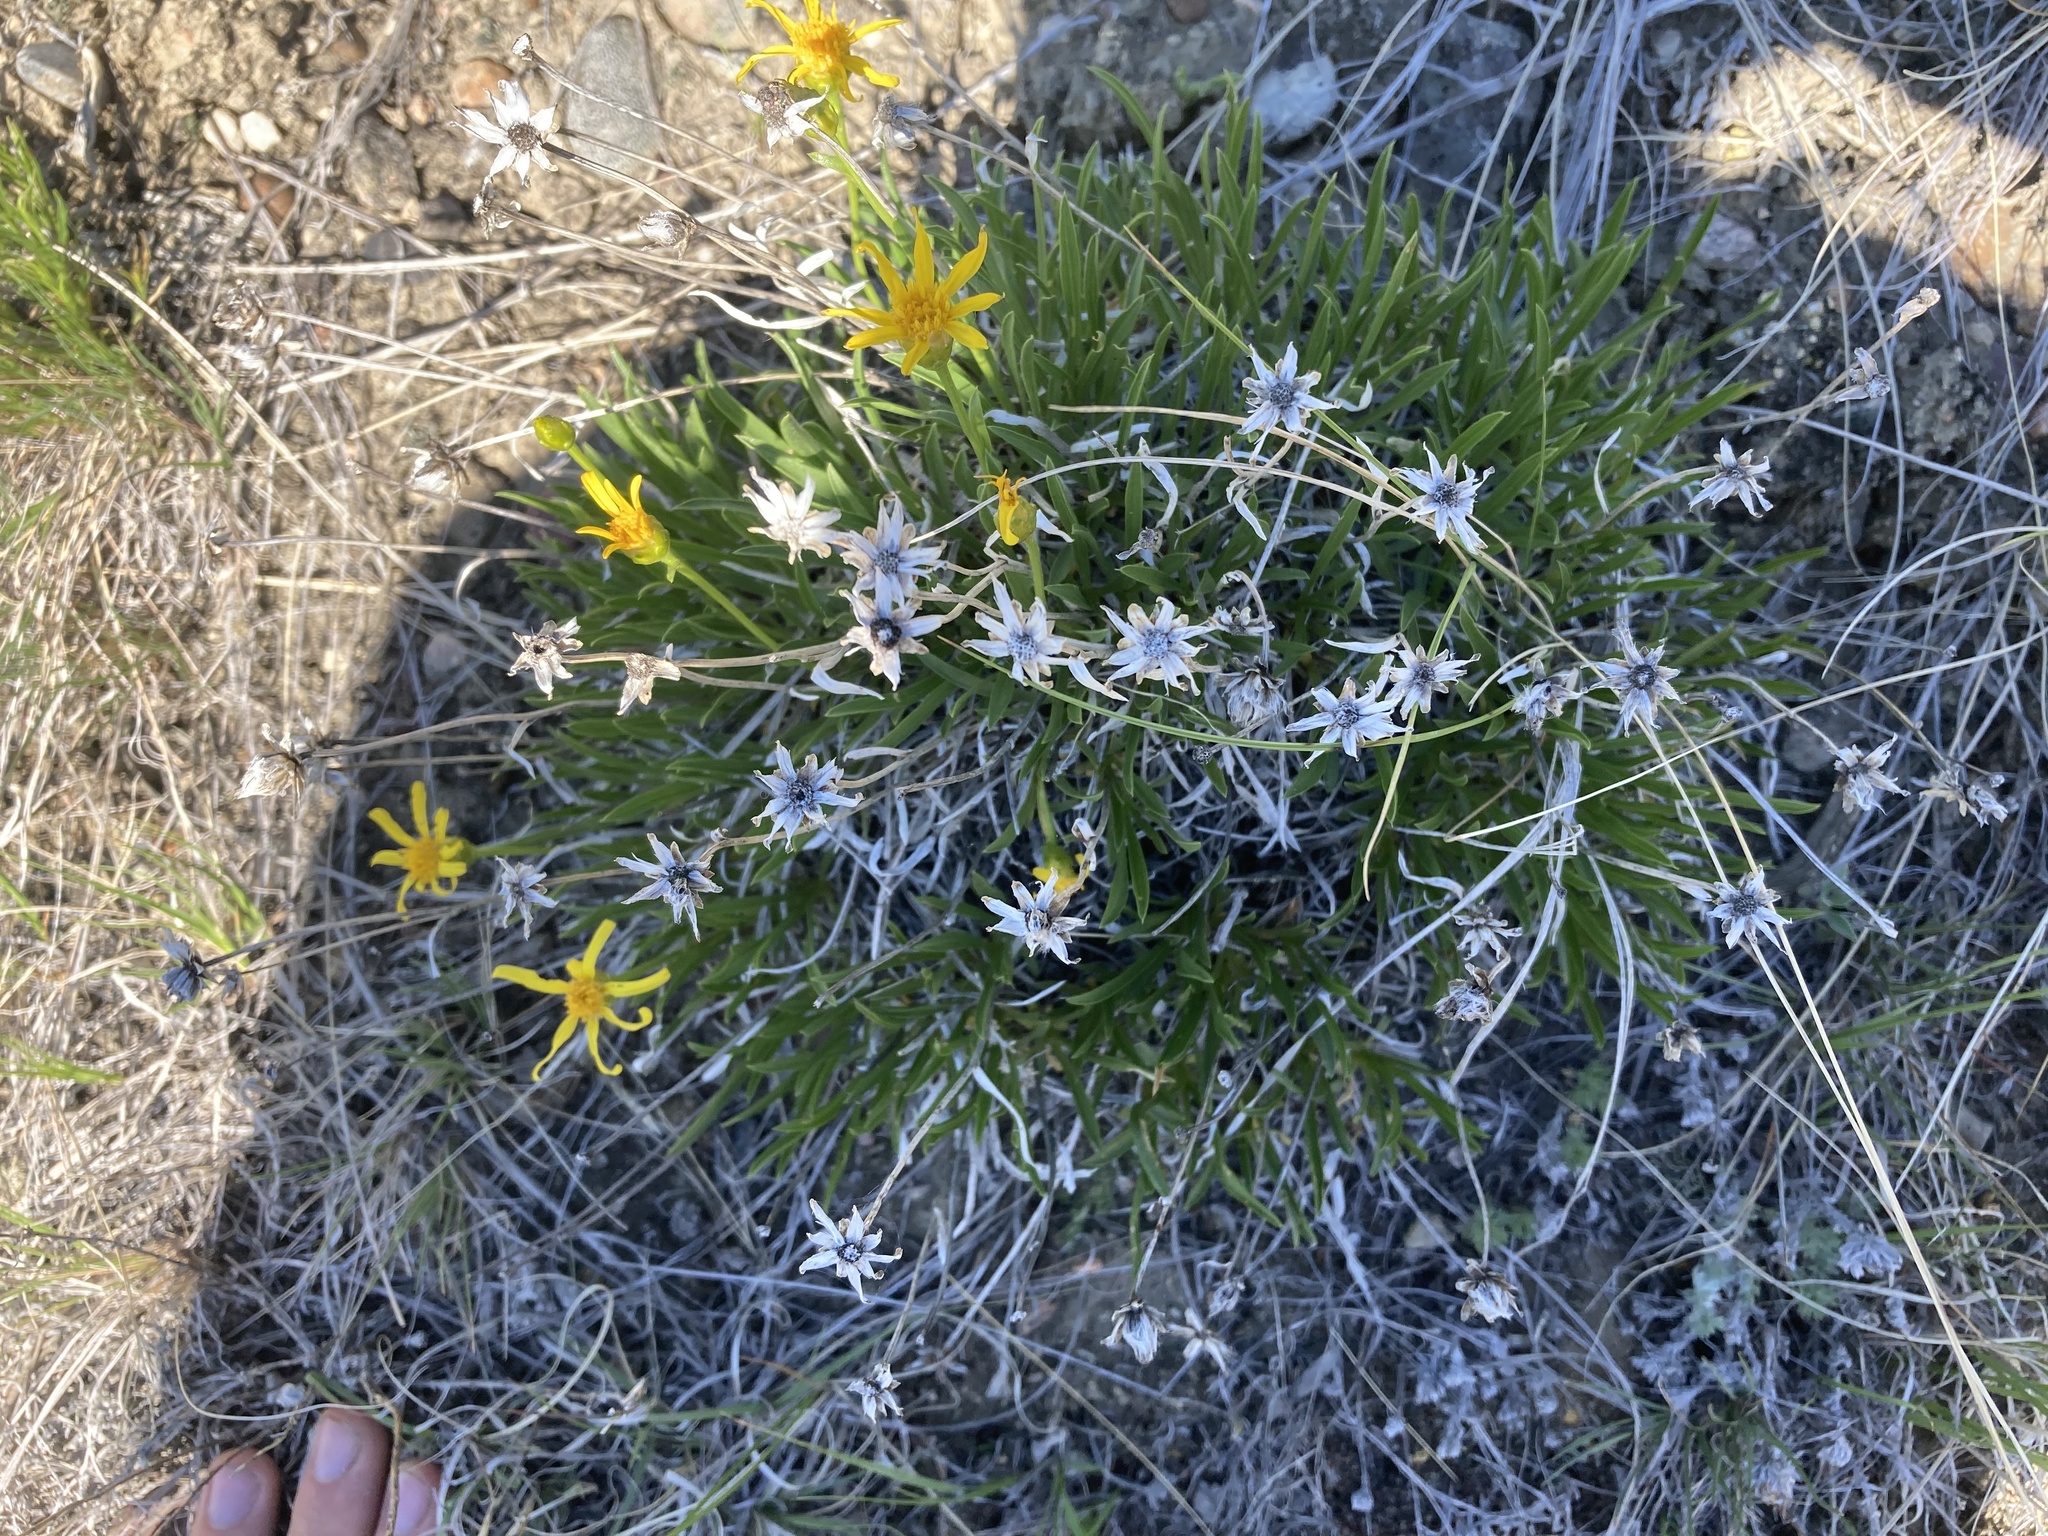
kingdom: Plantae
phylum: Tracheophyta
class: Magnoliopsida
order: Asterales
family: Asteraceae
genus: Hymenoxys
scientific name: Hymenoxys richardsonii
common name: Pingue rubberweed
